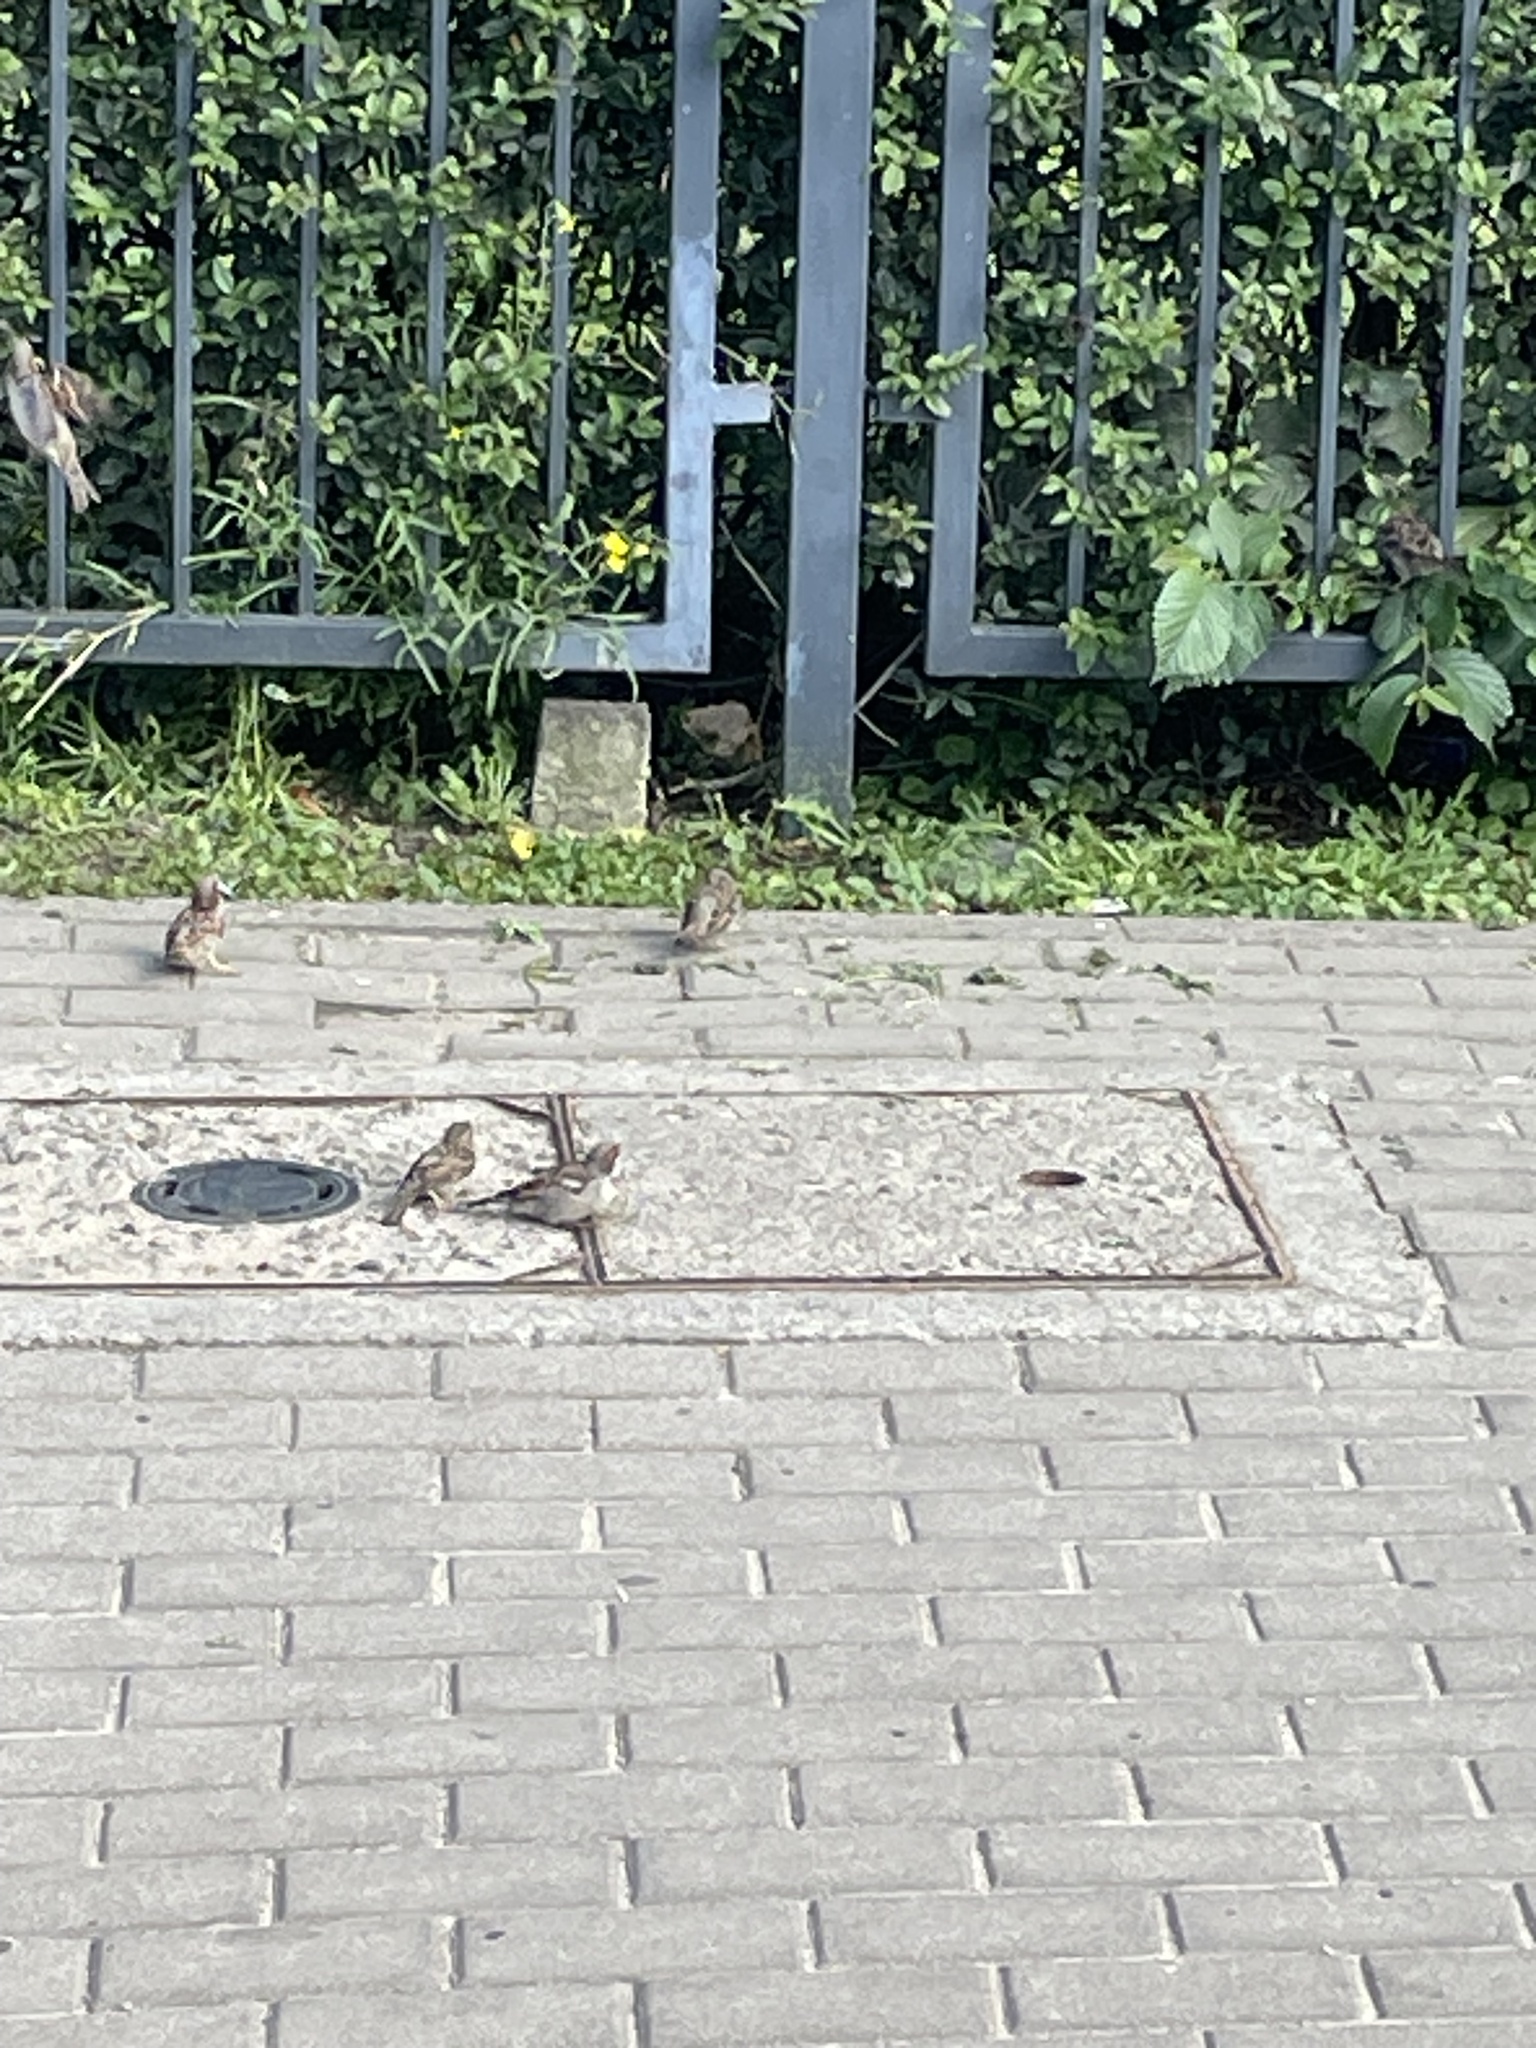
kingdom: Animalia
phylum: Chordata
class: Aves
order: Passeriformes
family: Passeridae
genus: Passer
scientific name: Passer domesticus
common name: House sparrow
